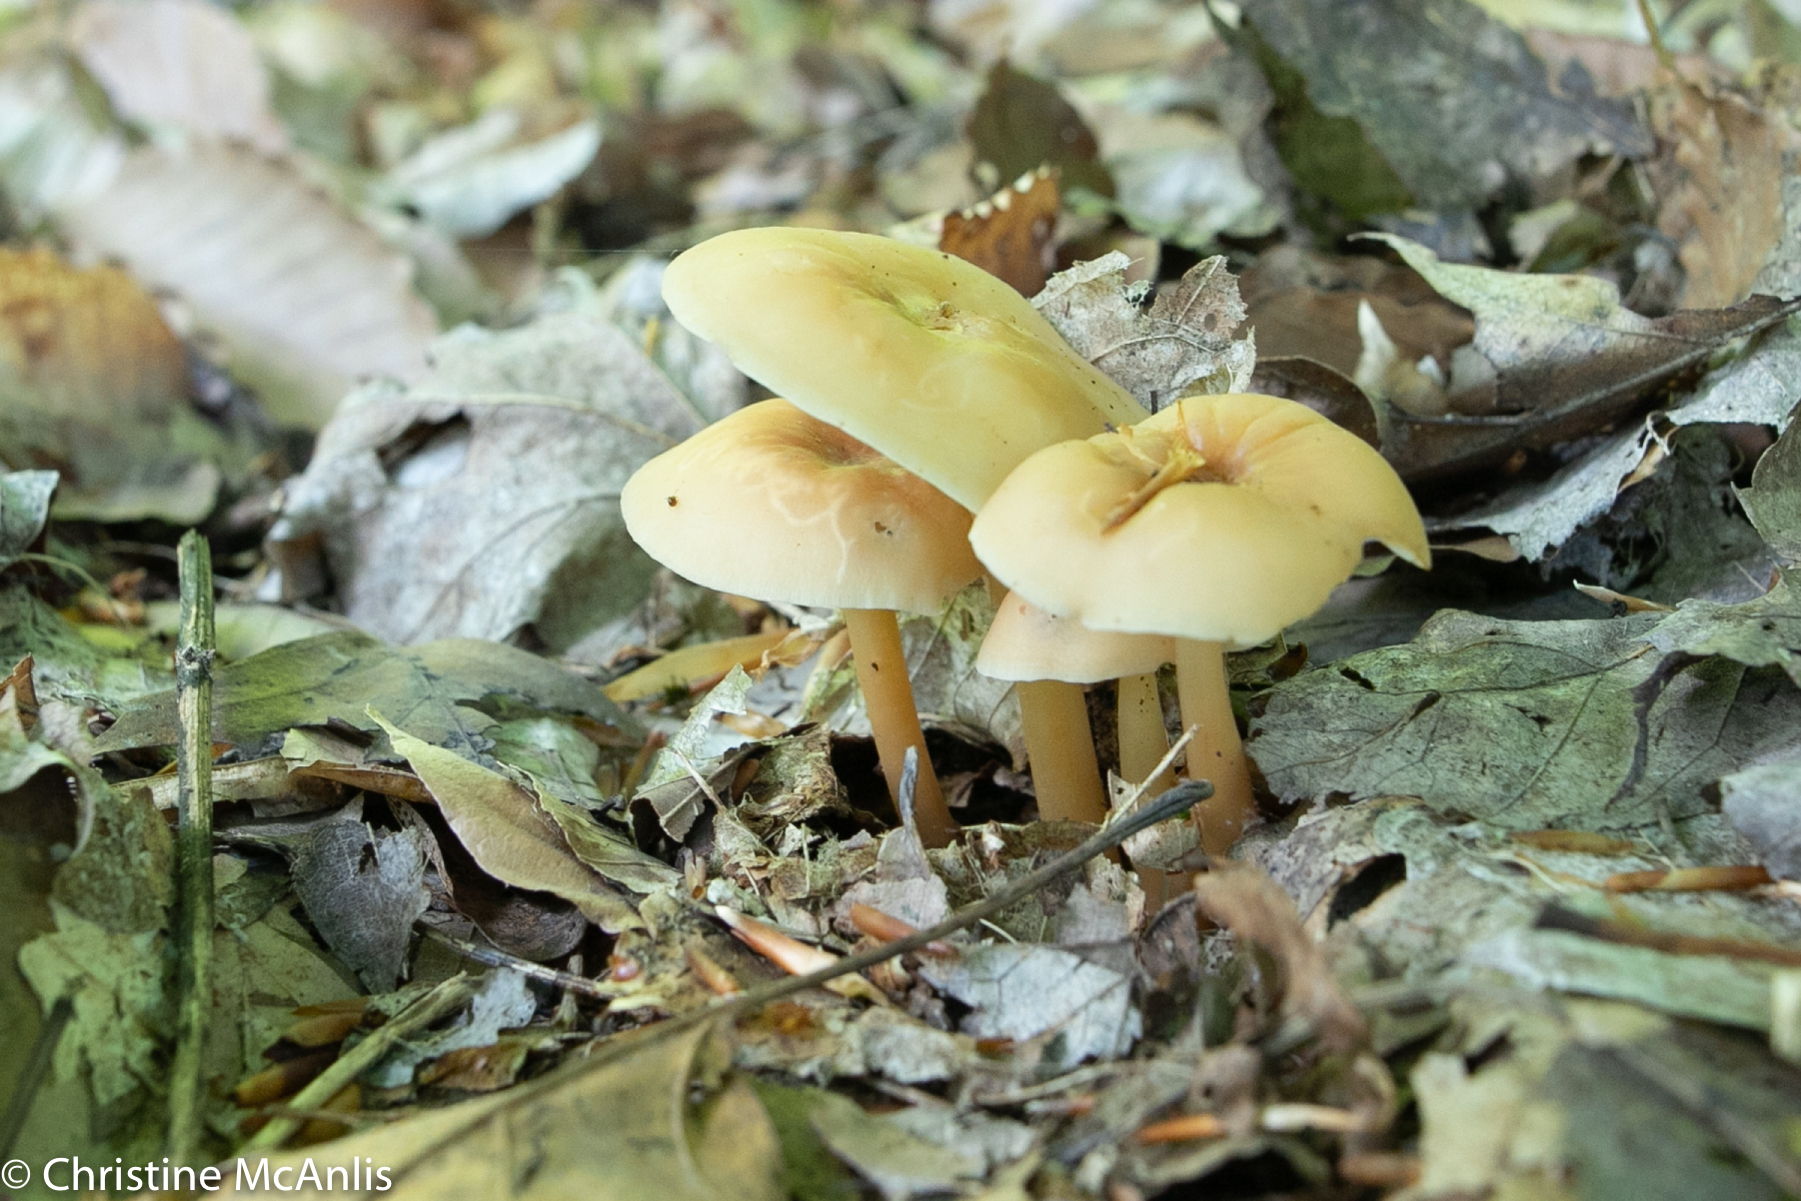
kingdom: Fungi
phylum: Basidiomycota
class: Agaricomycetes
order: Agaricales
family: Omphalotaceae
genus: Gymnopus
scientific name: Gymnopus earleae
